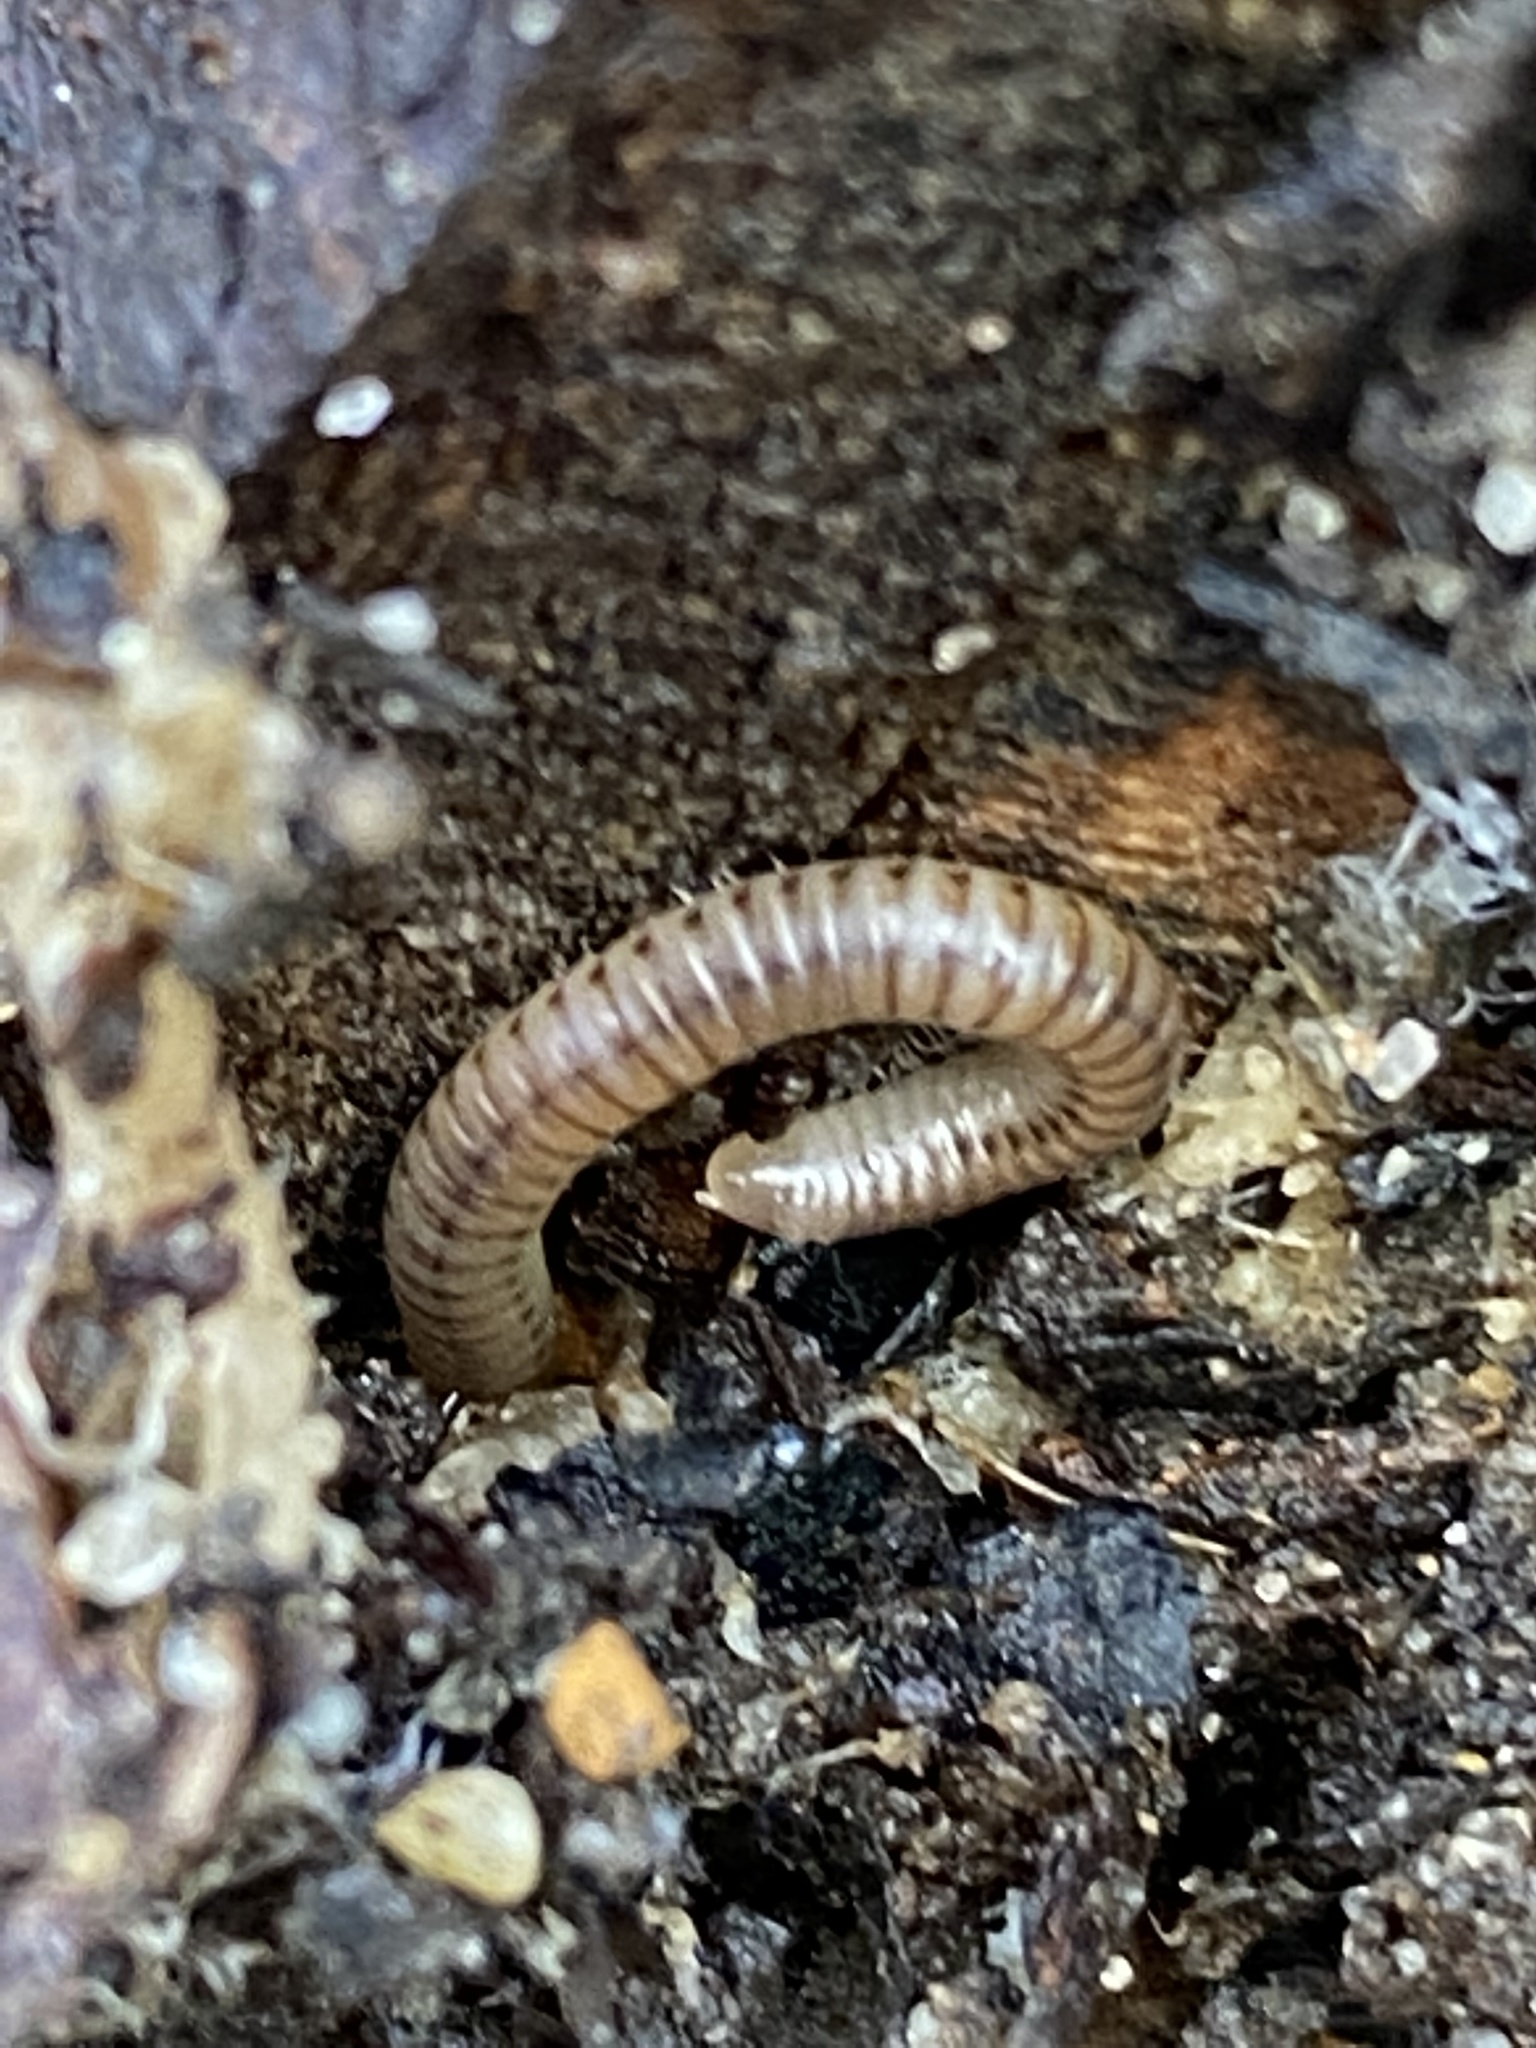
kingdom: Animalia
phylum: Arthropoda
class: Diplopoda
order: Julida
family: Julidae
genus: Cylindroiulus
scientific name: Cylindroiulus punctatus
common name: Blunt-tailed millipede
